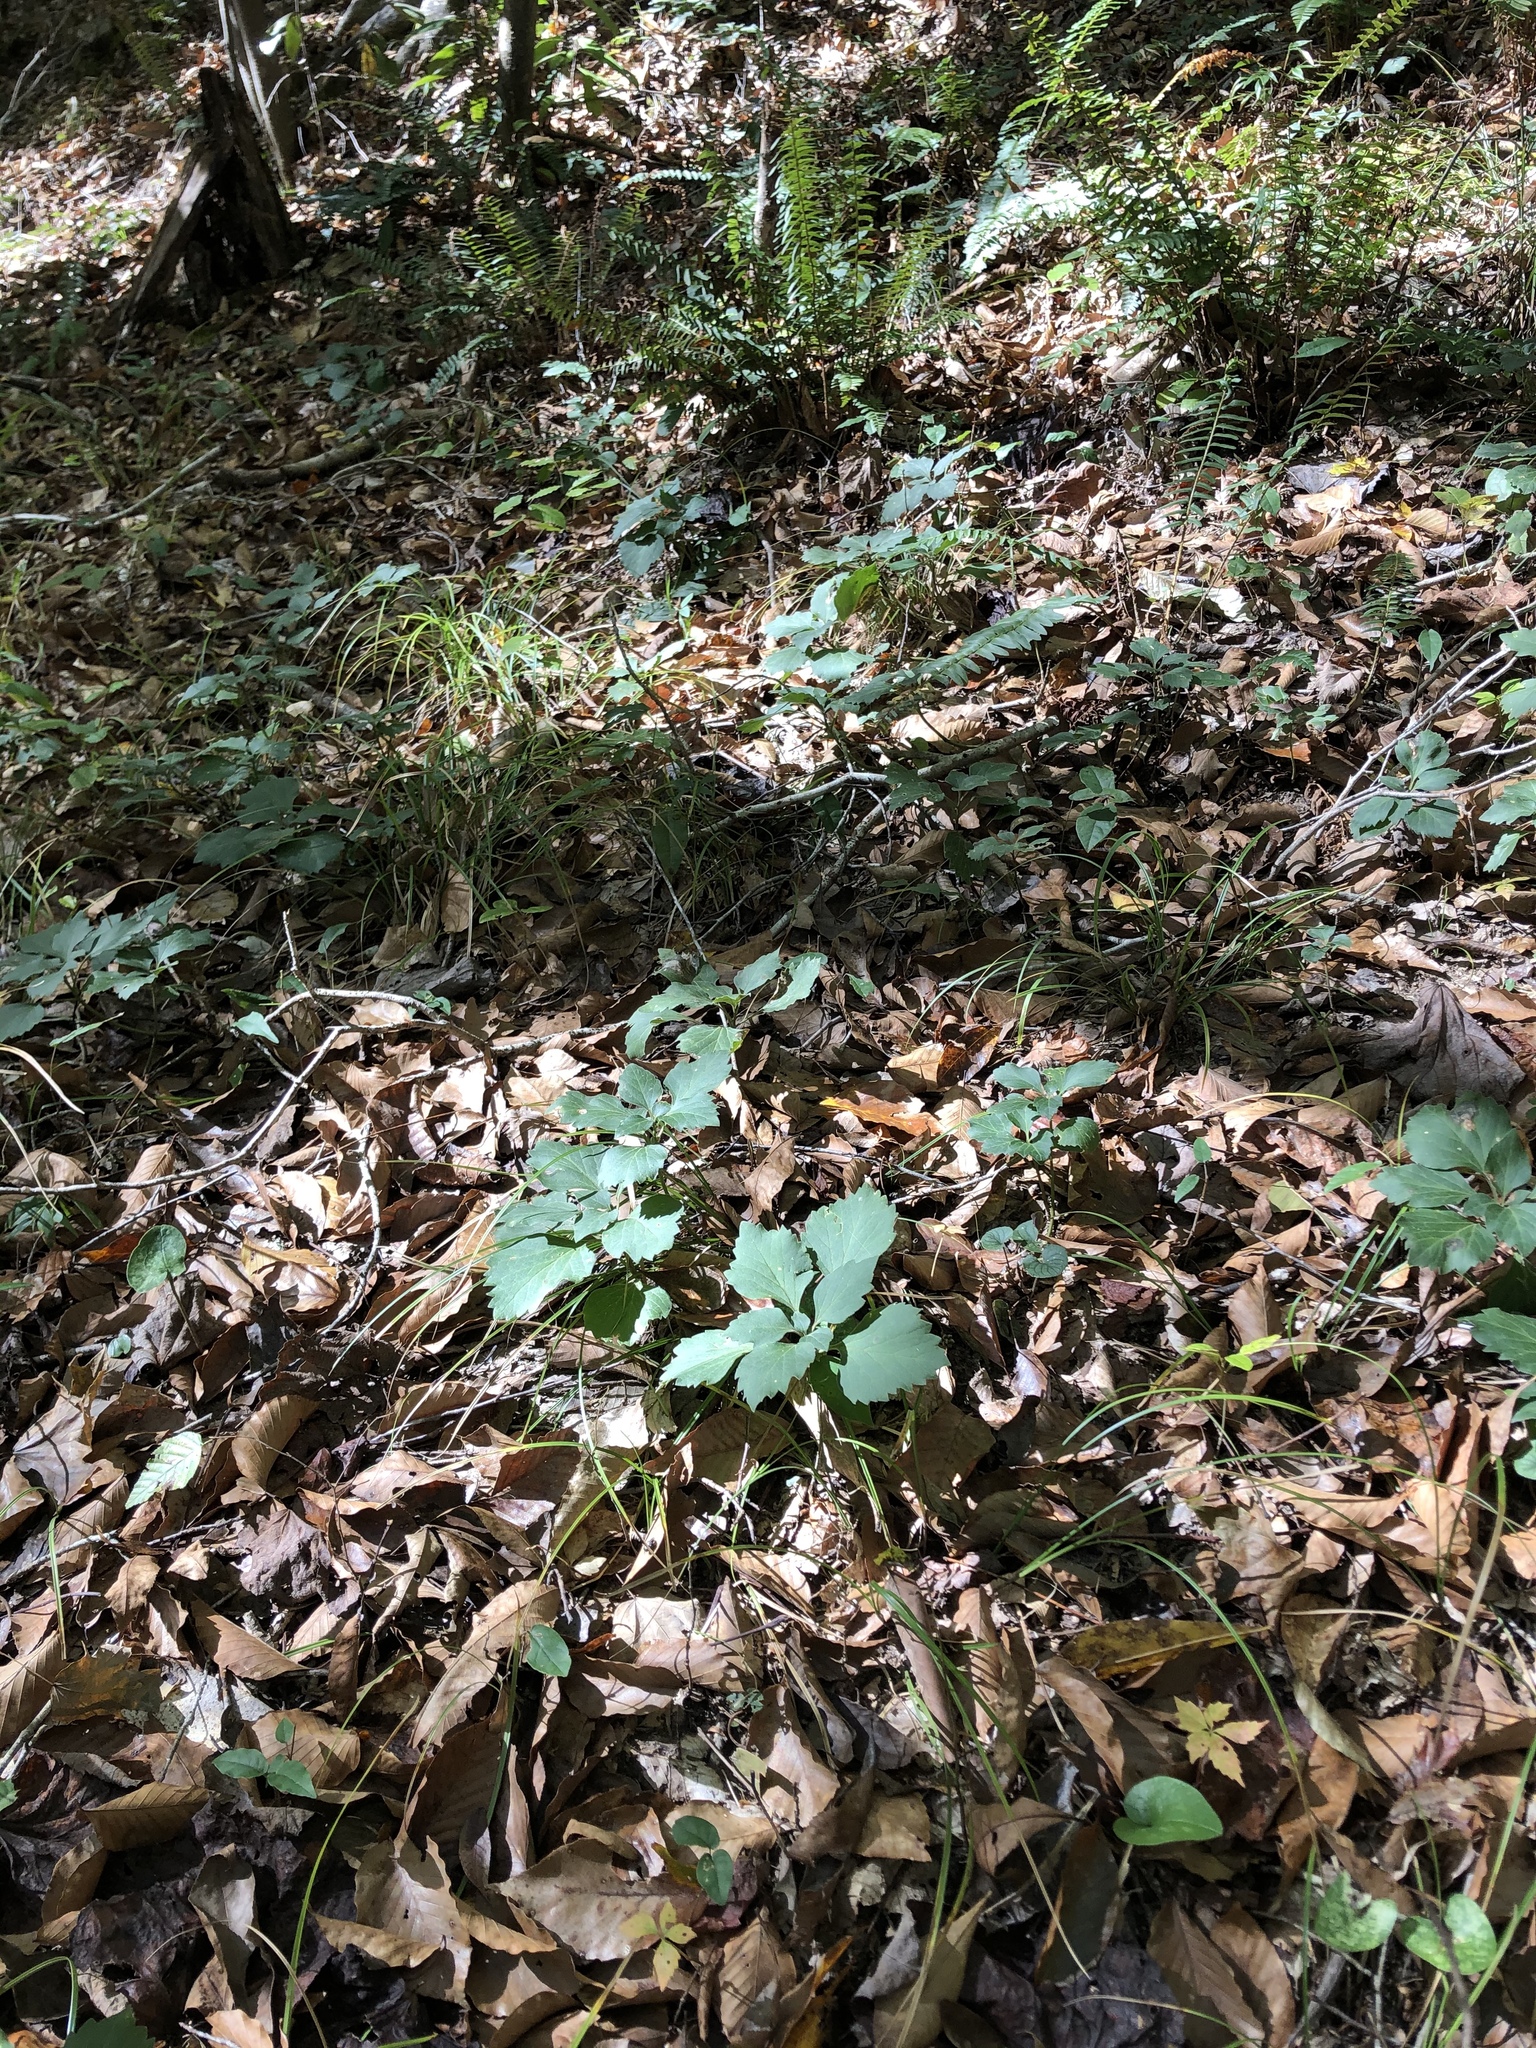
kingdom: Plantae
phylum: Tracheophyta
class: Magnoliopsida
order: Buxales
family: Buxaceae
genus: Pachysandra
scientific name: Pachysandra procumbens
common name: Mountain-spurge
